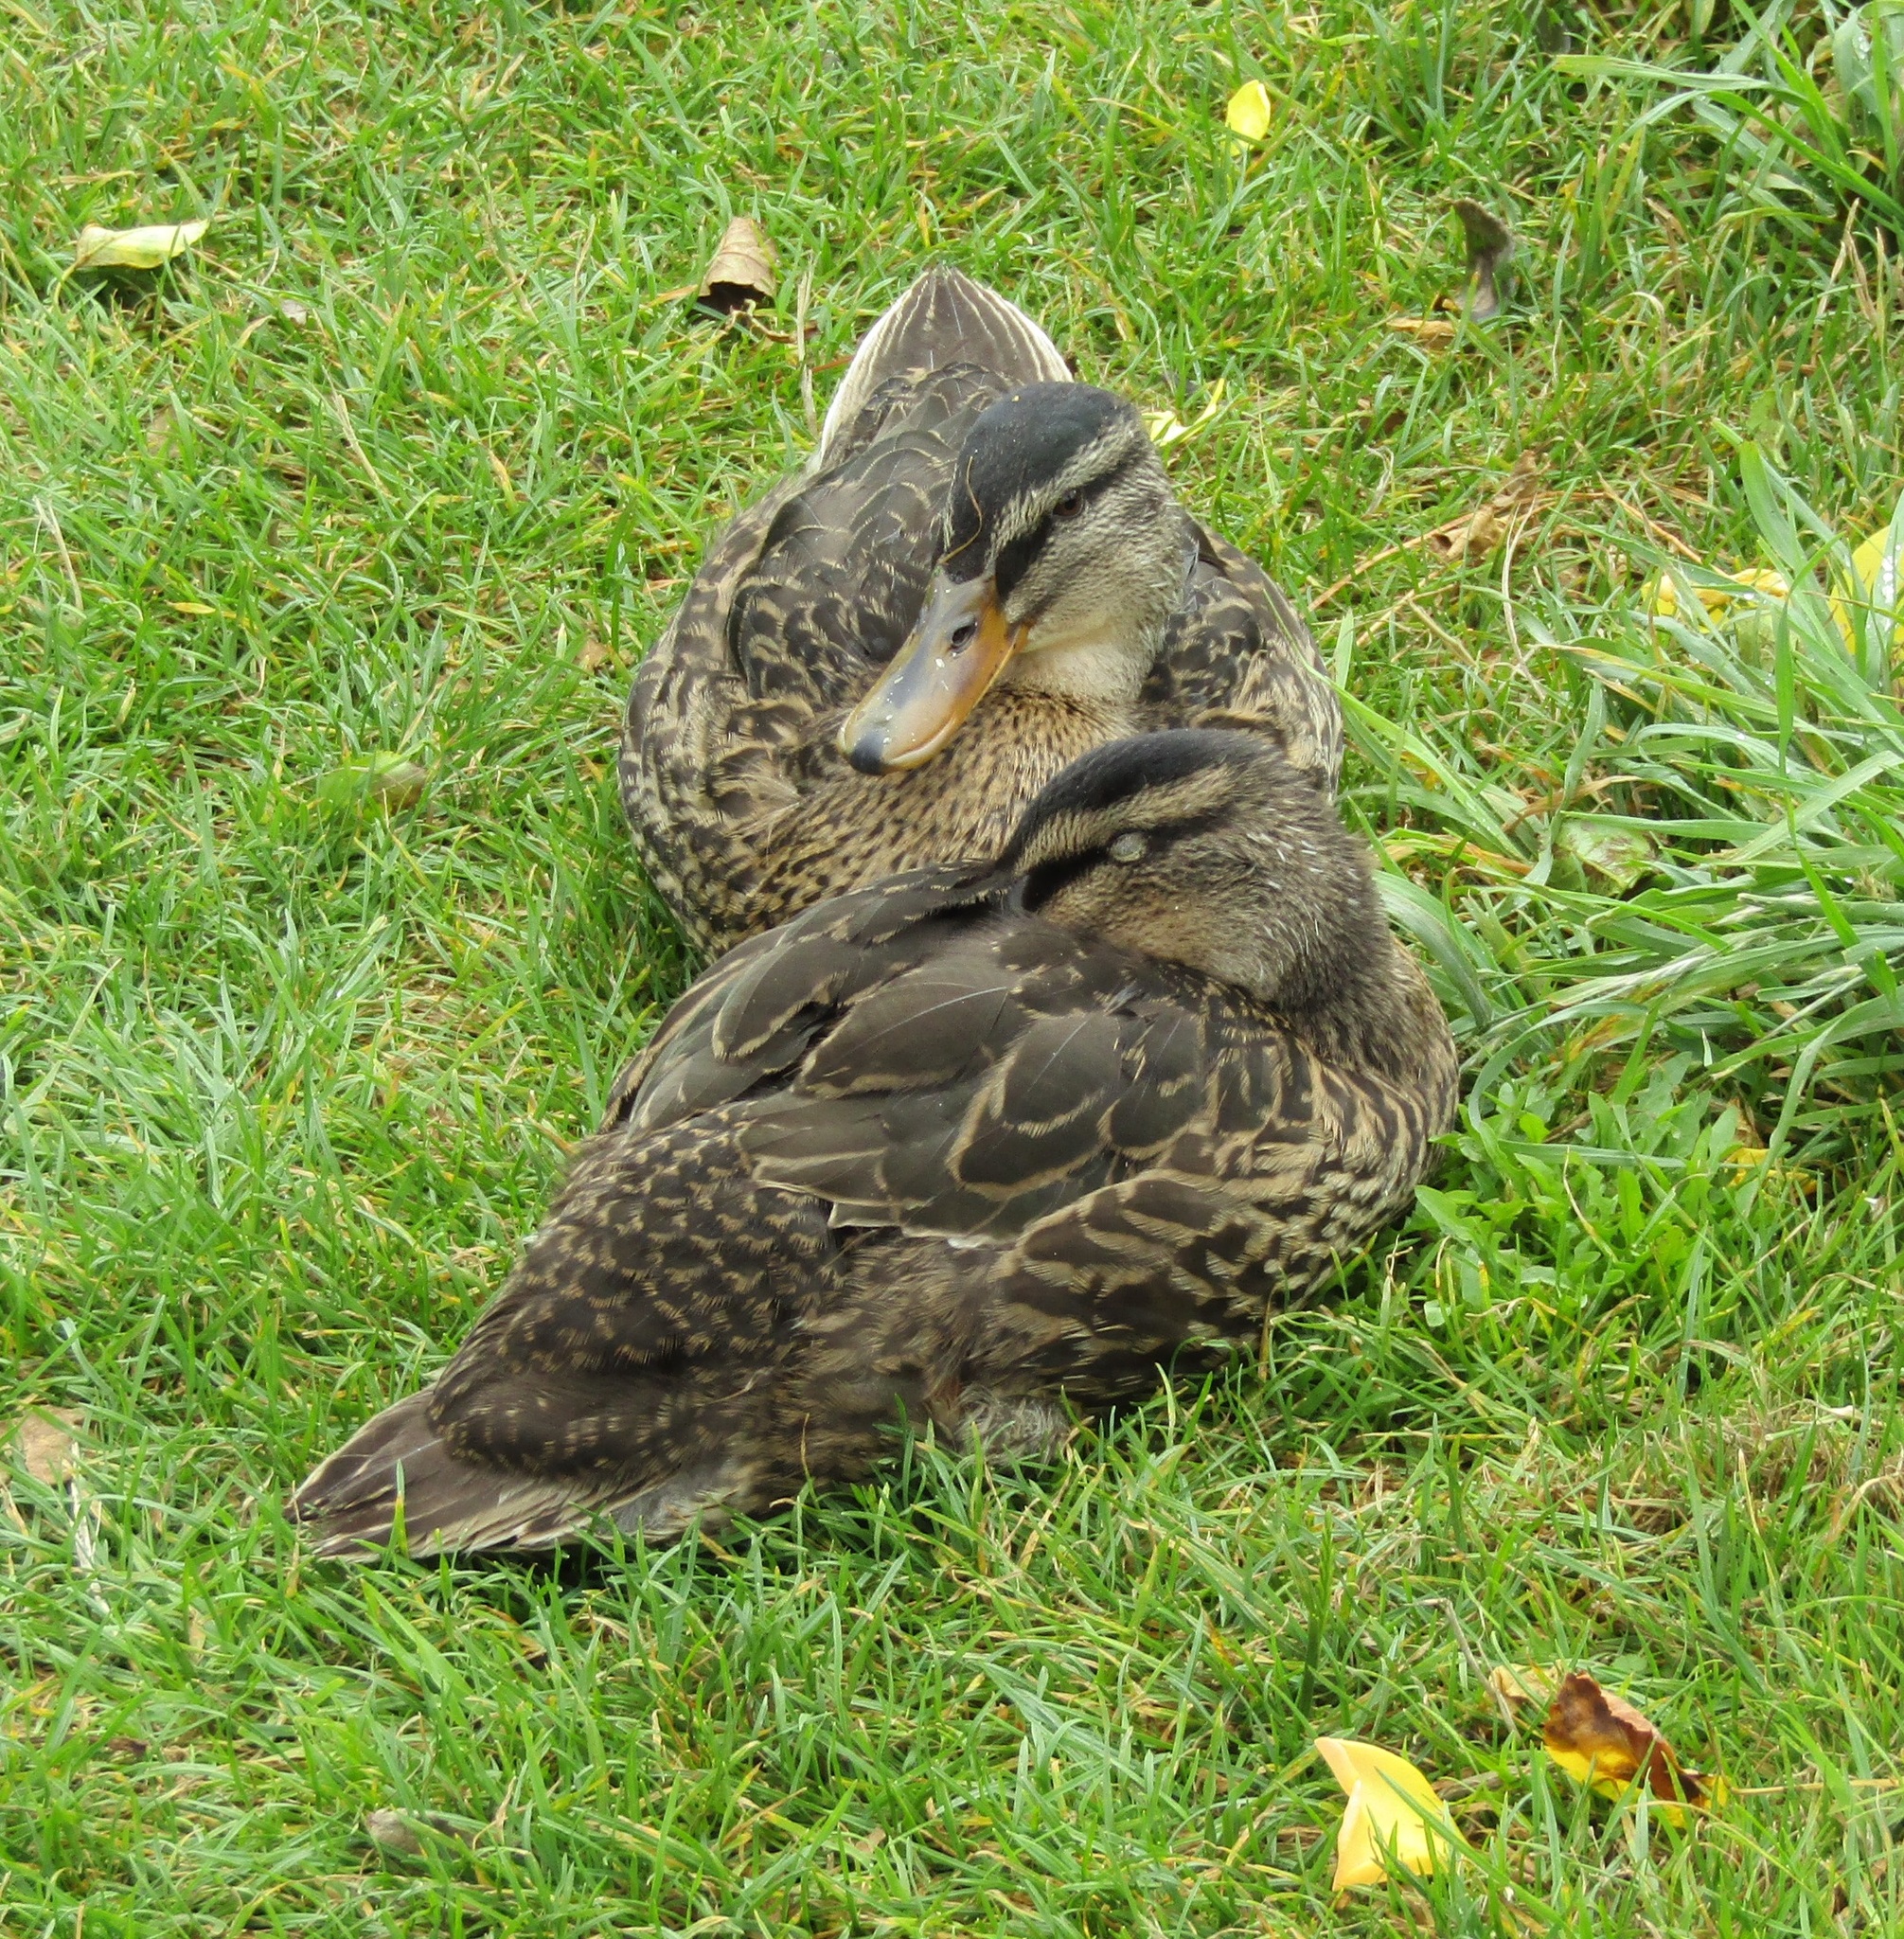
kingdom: Animalia
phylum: Chordata
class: Aves
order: Anseriformes
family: Anatidae
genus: Anas
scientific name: Anas
